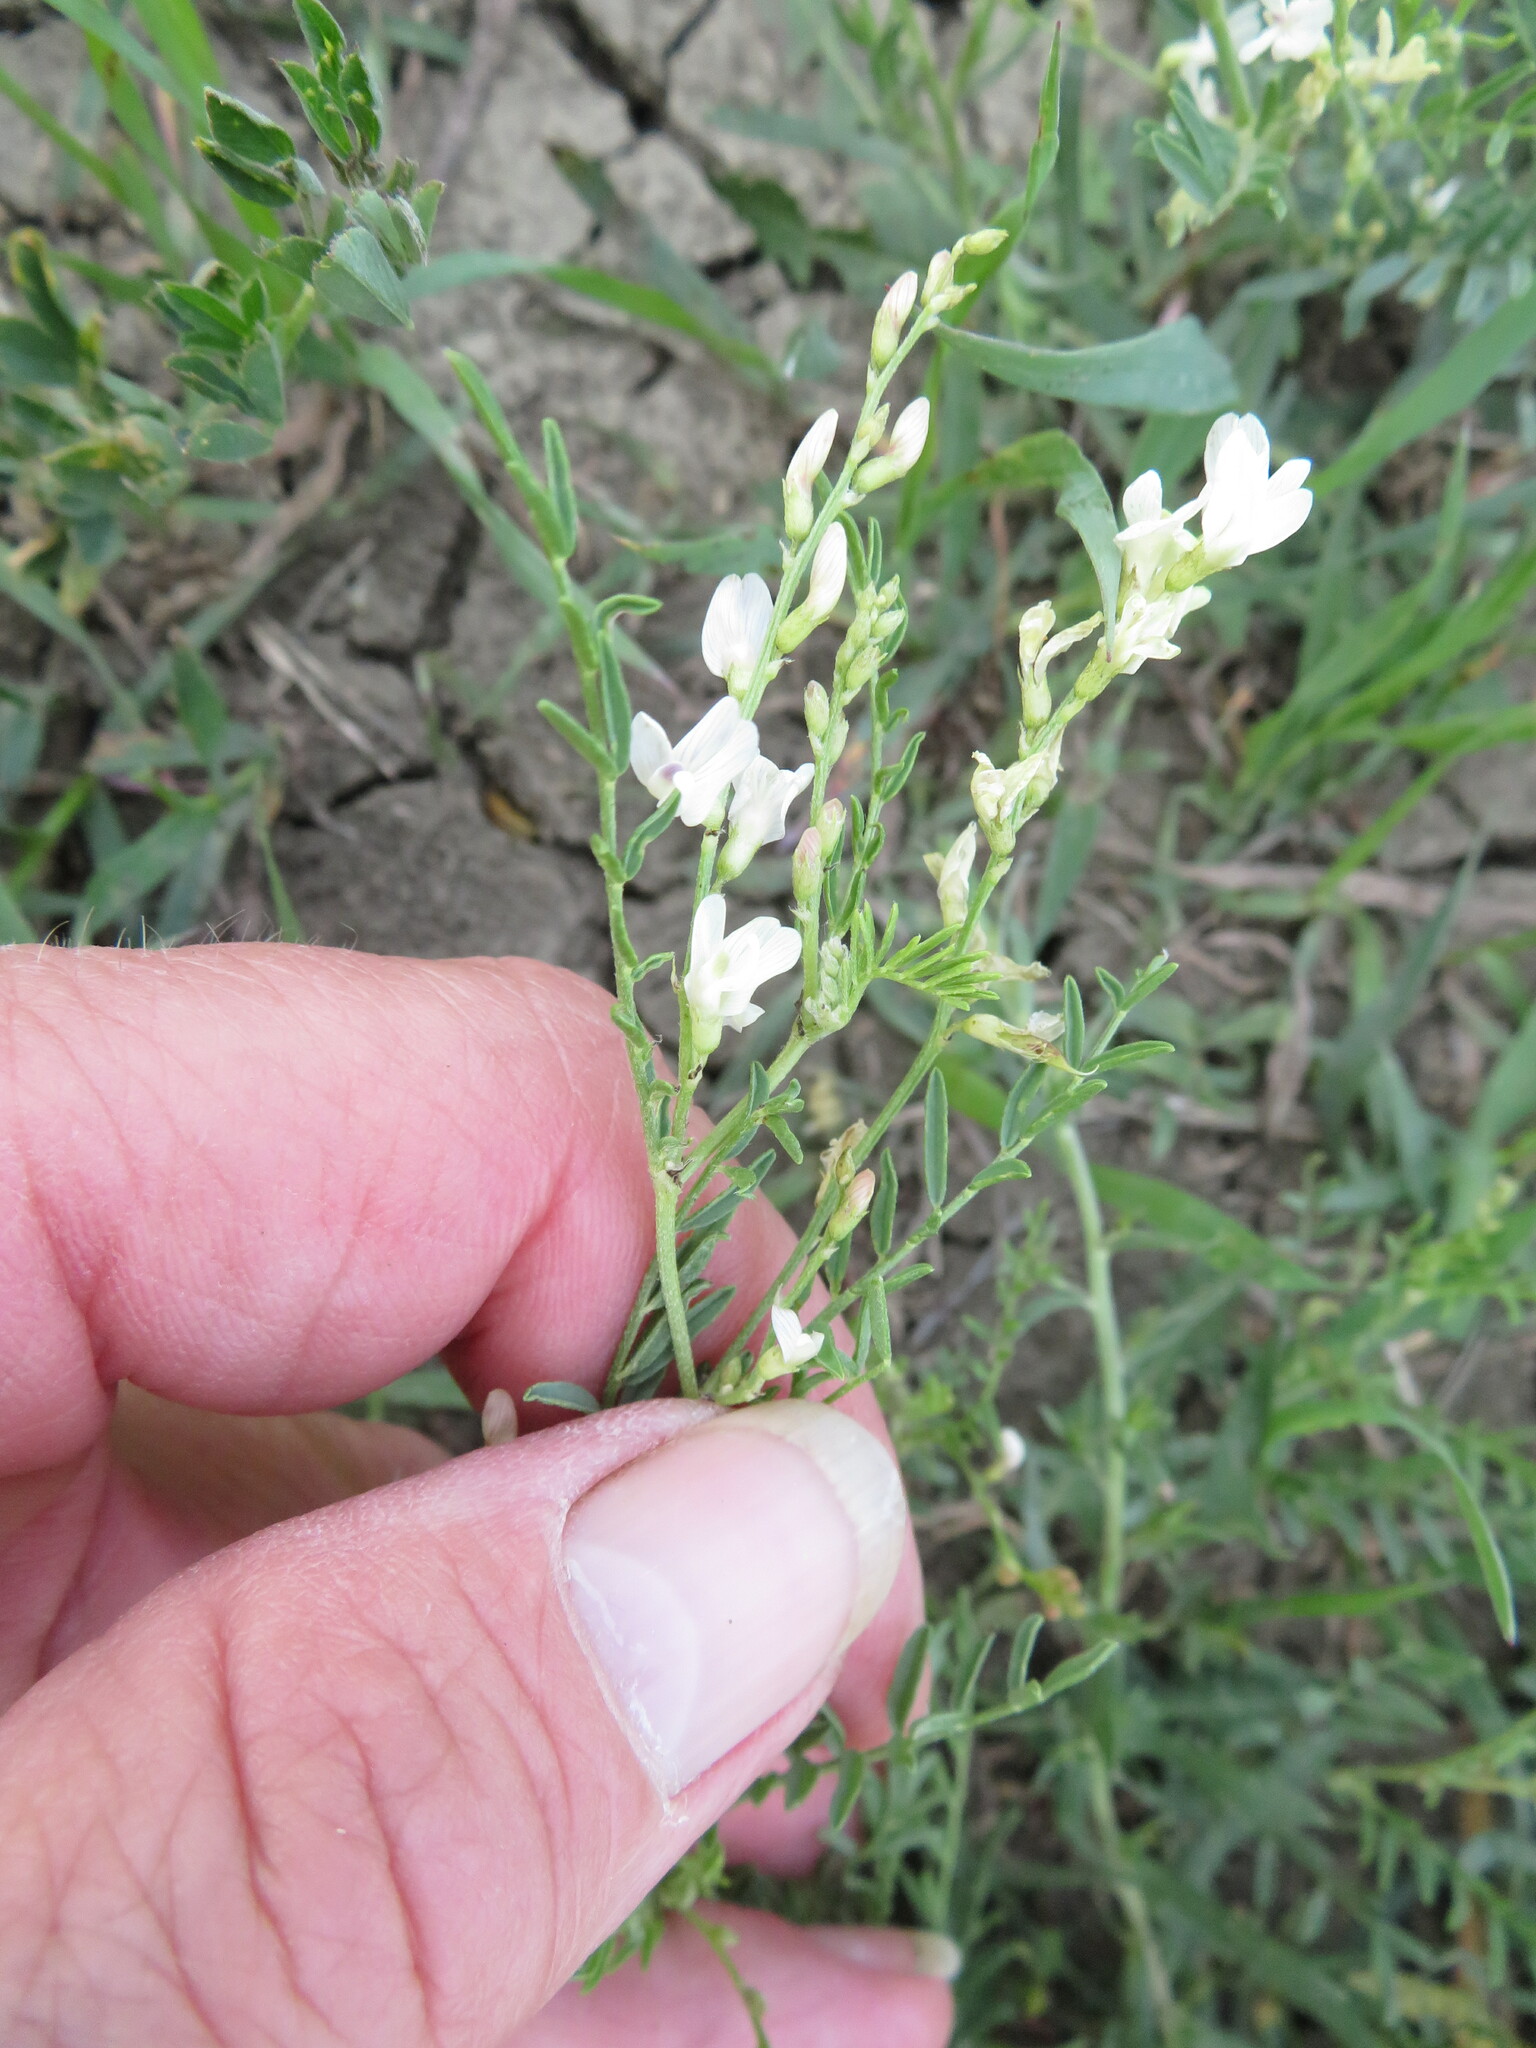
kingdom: Plantae
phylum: Tracheophyta
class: Magnoliopsida
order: Fabales
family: Fabaceae
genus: Astragalus
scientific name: Astragalus tenellus
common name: Pulse milk-vetch
